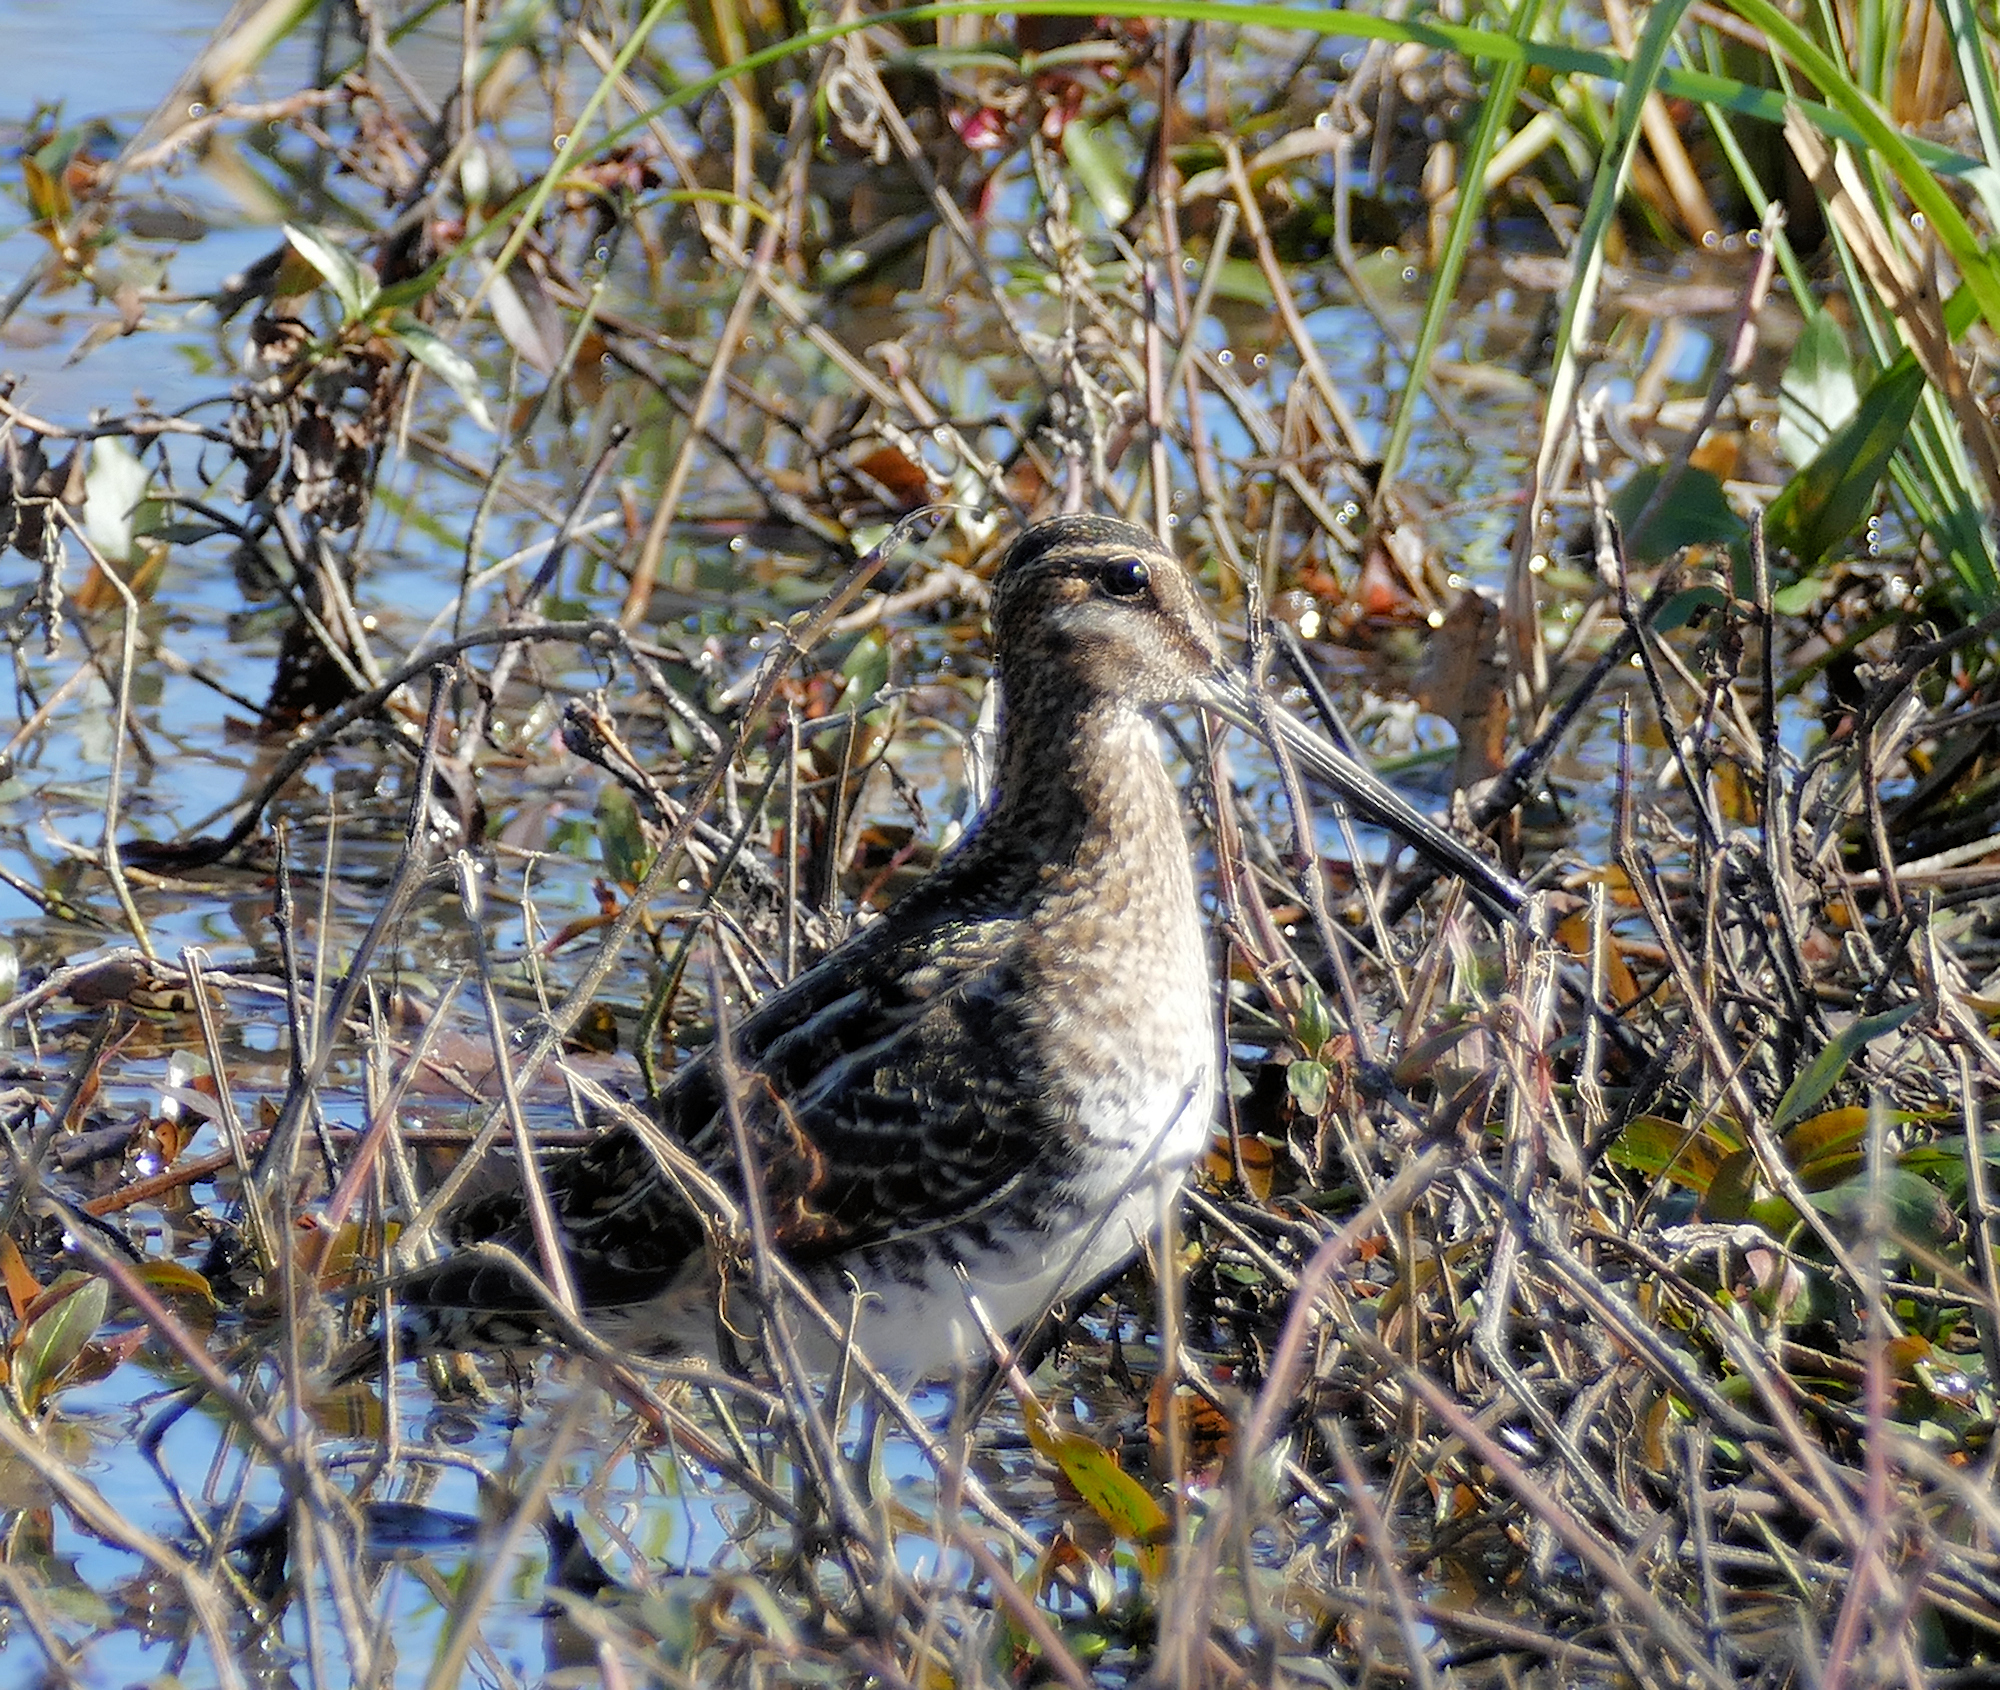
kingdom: Animalia
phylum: Chordata
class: Aves
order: Charadriiformes
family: Scolopacidae
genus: Gallinago
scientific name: Gallinago delicata
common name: Wilson's snipe
